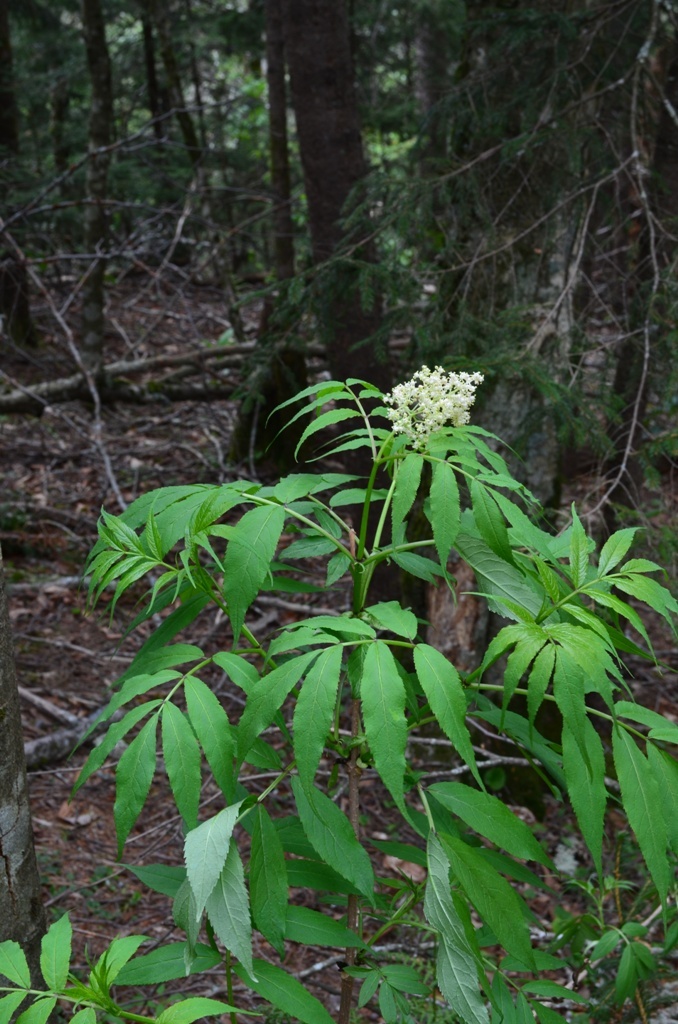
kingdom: Plantae
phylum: Tracheophyta
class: Magnoliopsida
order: Dipsacales
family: Viburnaceae
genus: Sambucus
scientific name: Sambucus racemosa
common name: Red-berried elder
